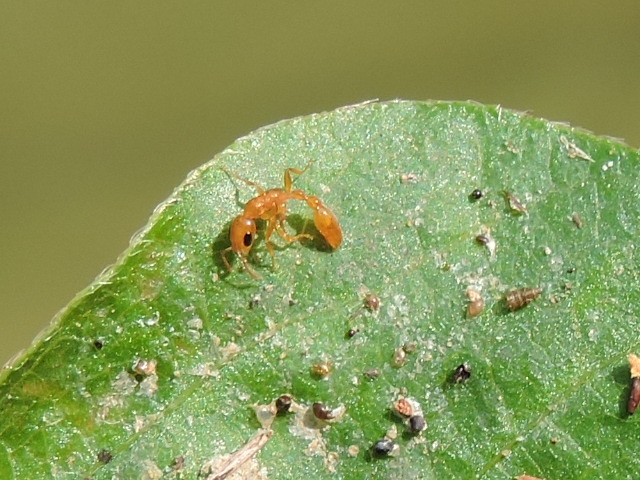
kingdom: Animalia
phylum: Arthropoda
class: Insecta
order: Hymenoptera
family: Formicidae
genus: Pseudomyrmex
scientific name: Pseudomyrmex pallidus
